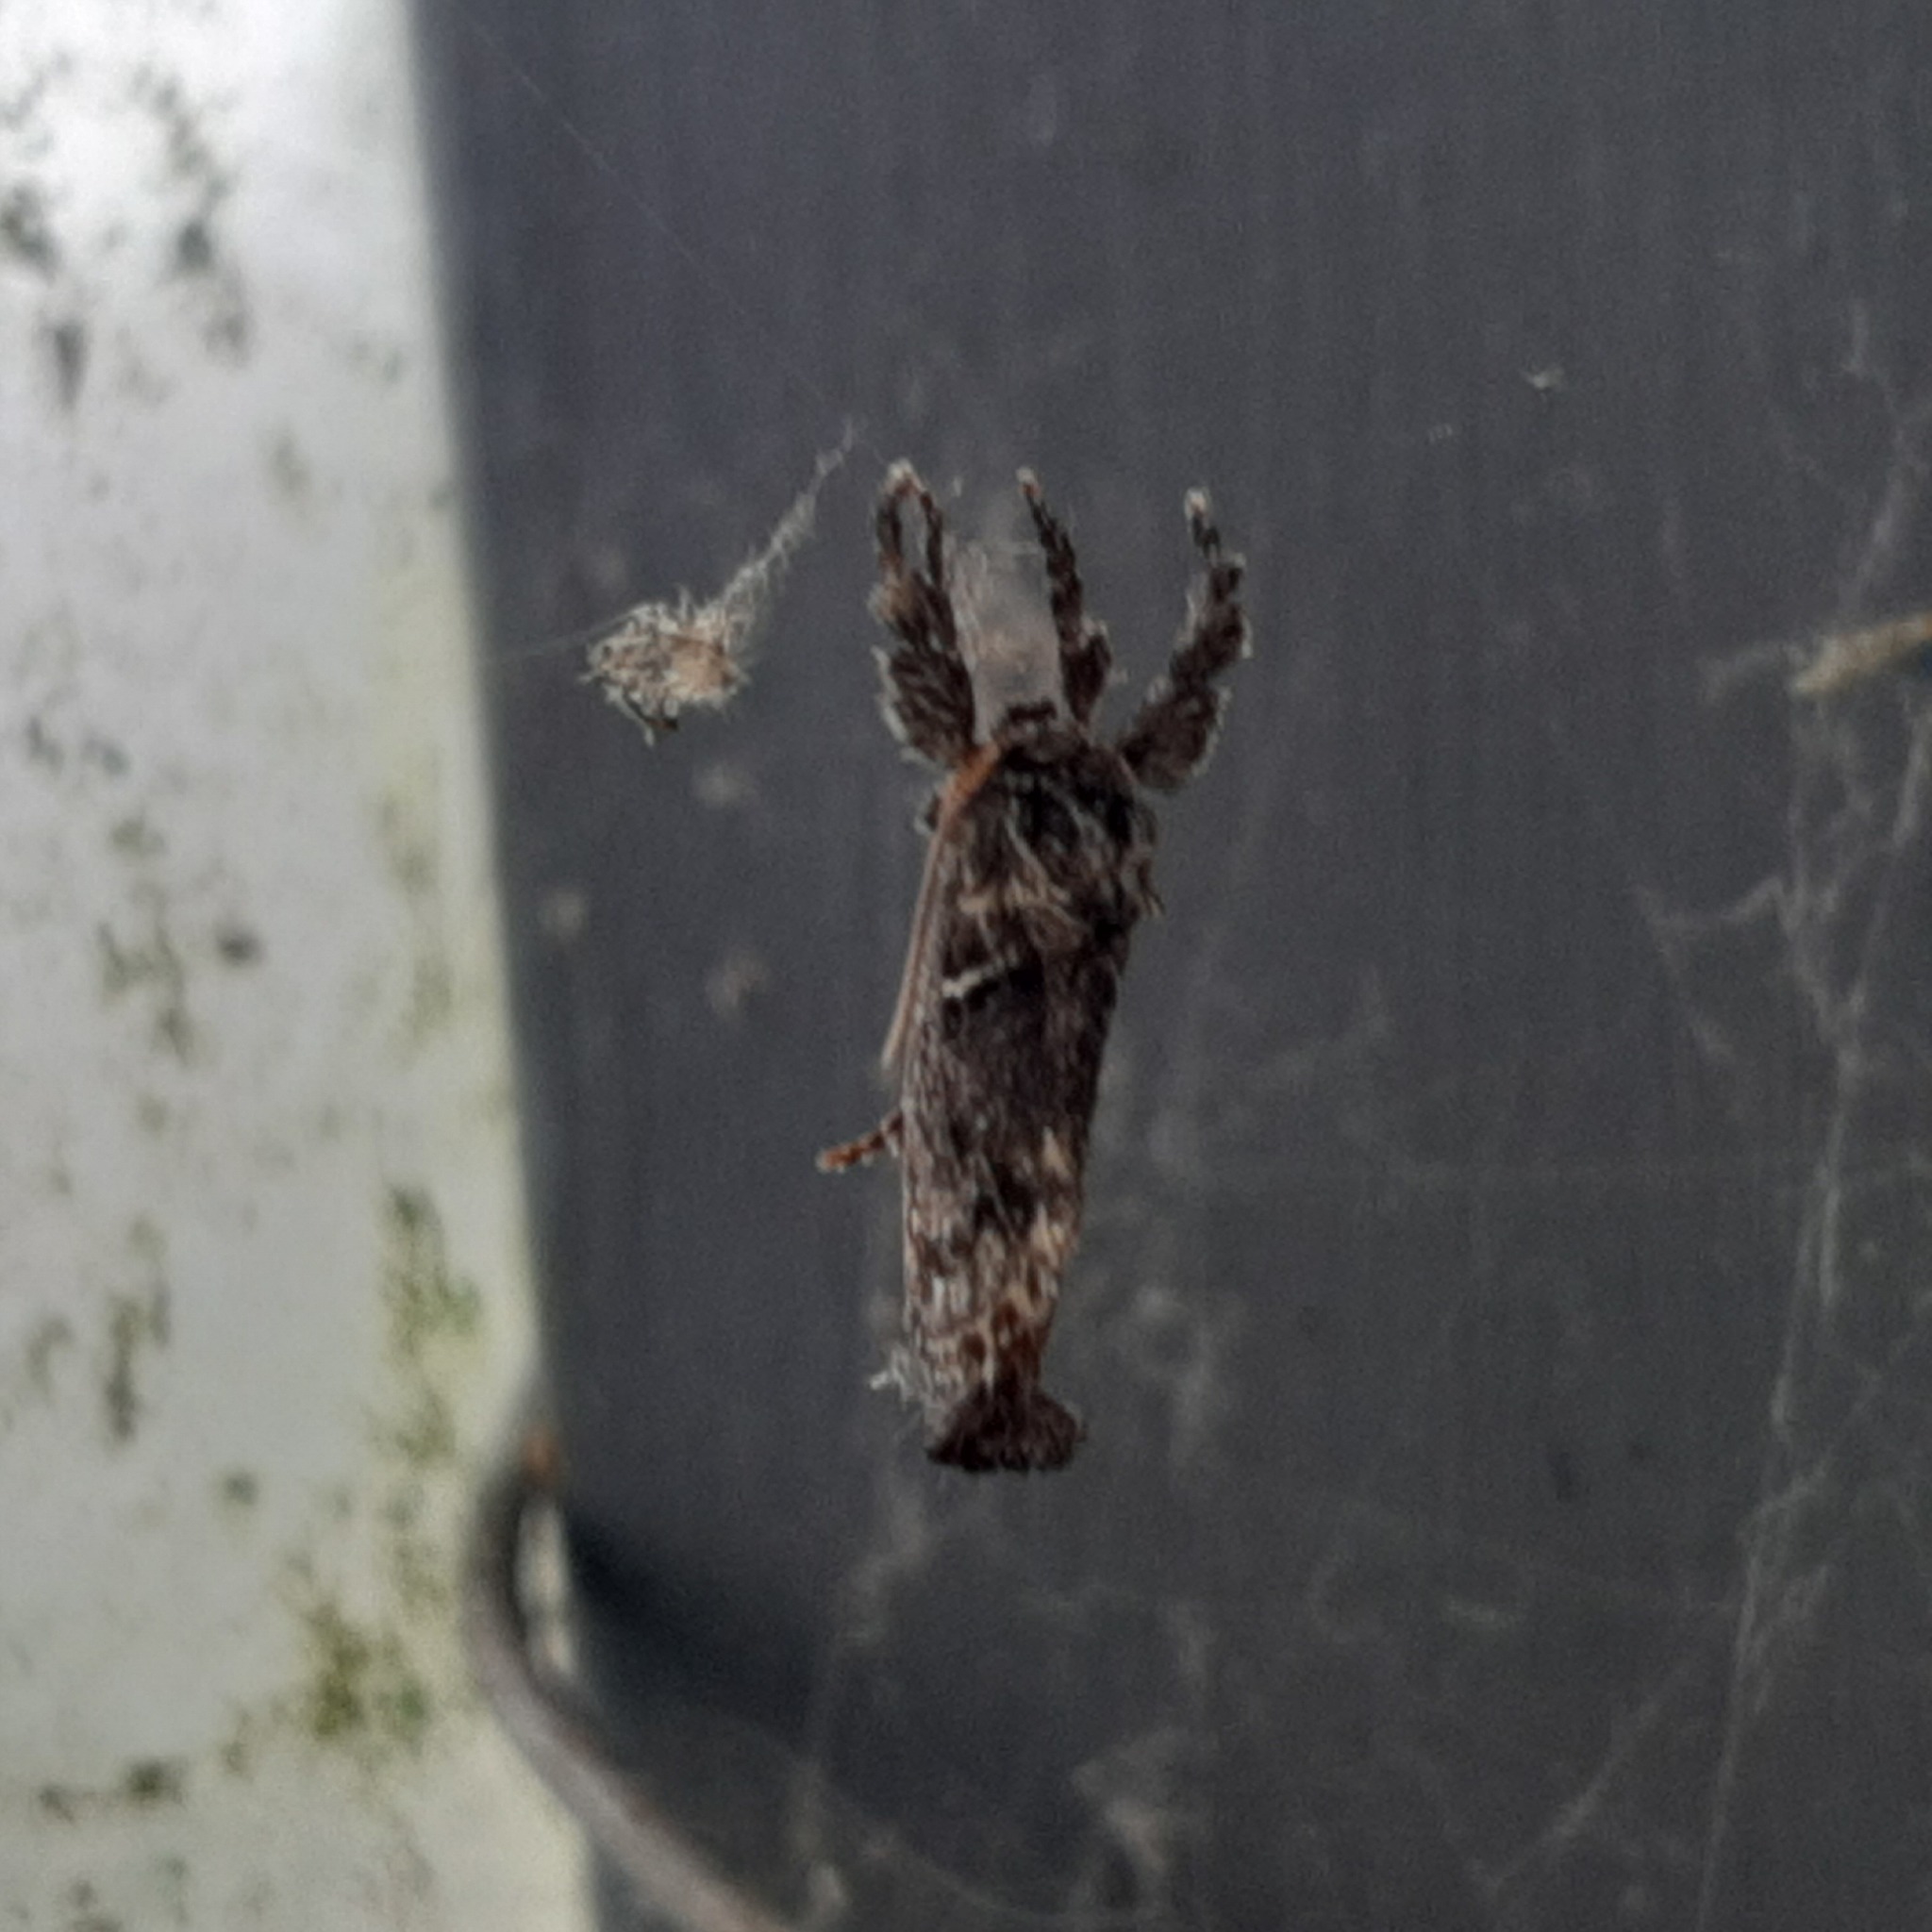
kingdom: Animalia
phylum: Arthropoda
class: Insecta
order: Lepidoptera
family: Limacodidae
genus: Euclea
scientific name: Euclea plugma
